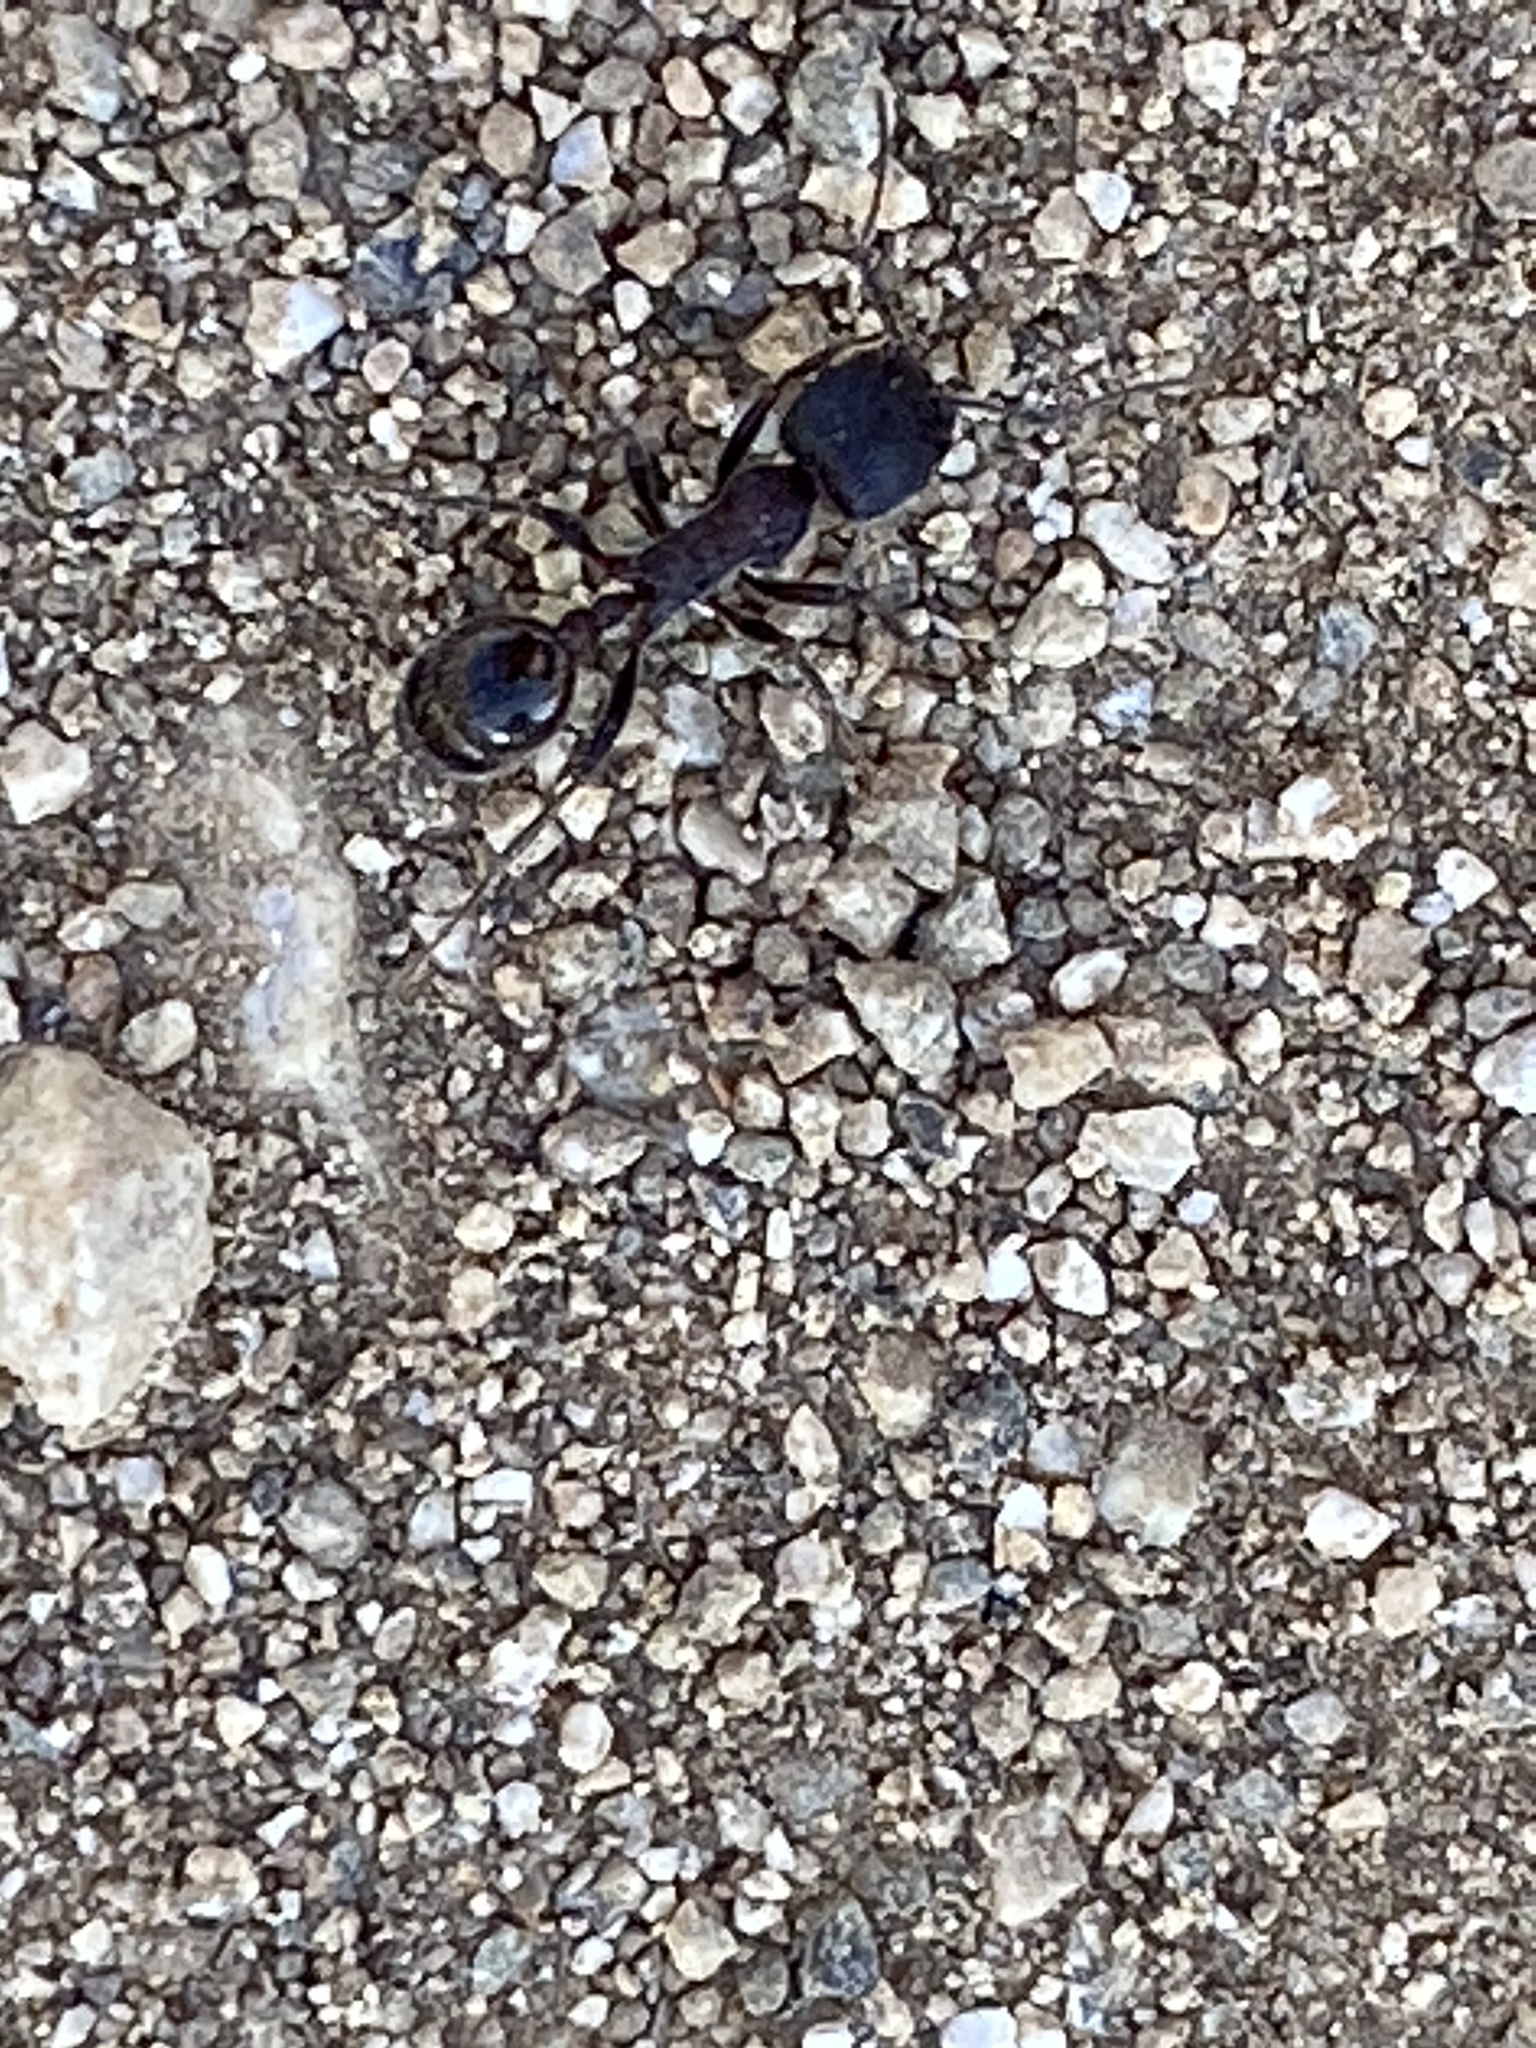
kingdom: Animalia
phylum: Arthropoda
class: Insecta
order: Hymenoptera
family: Formicidae
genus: Veromessor
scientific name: Veromessor andrei
